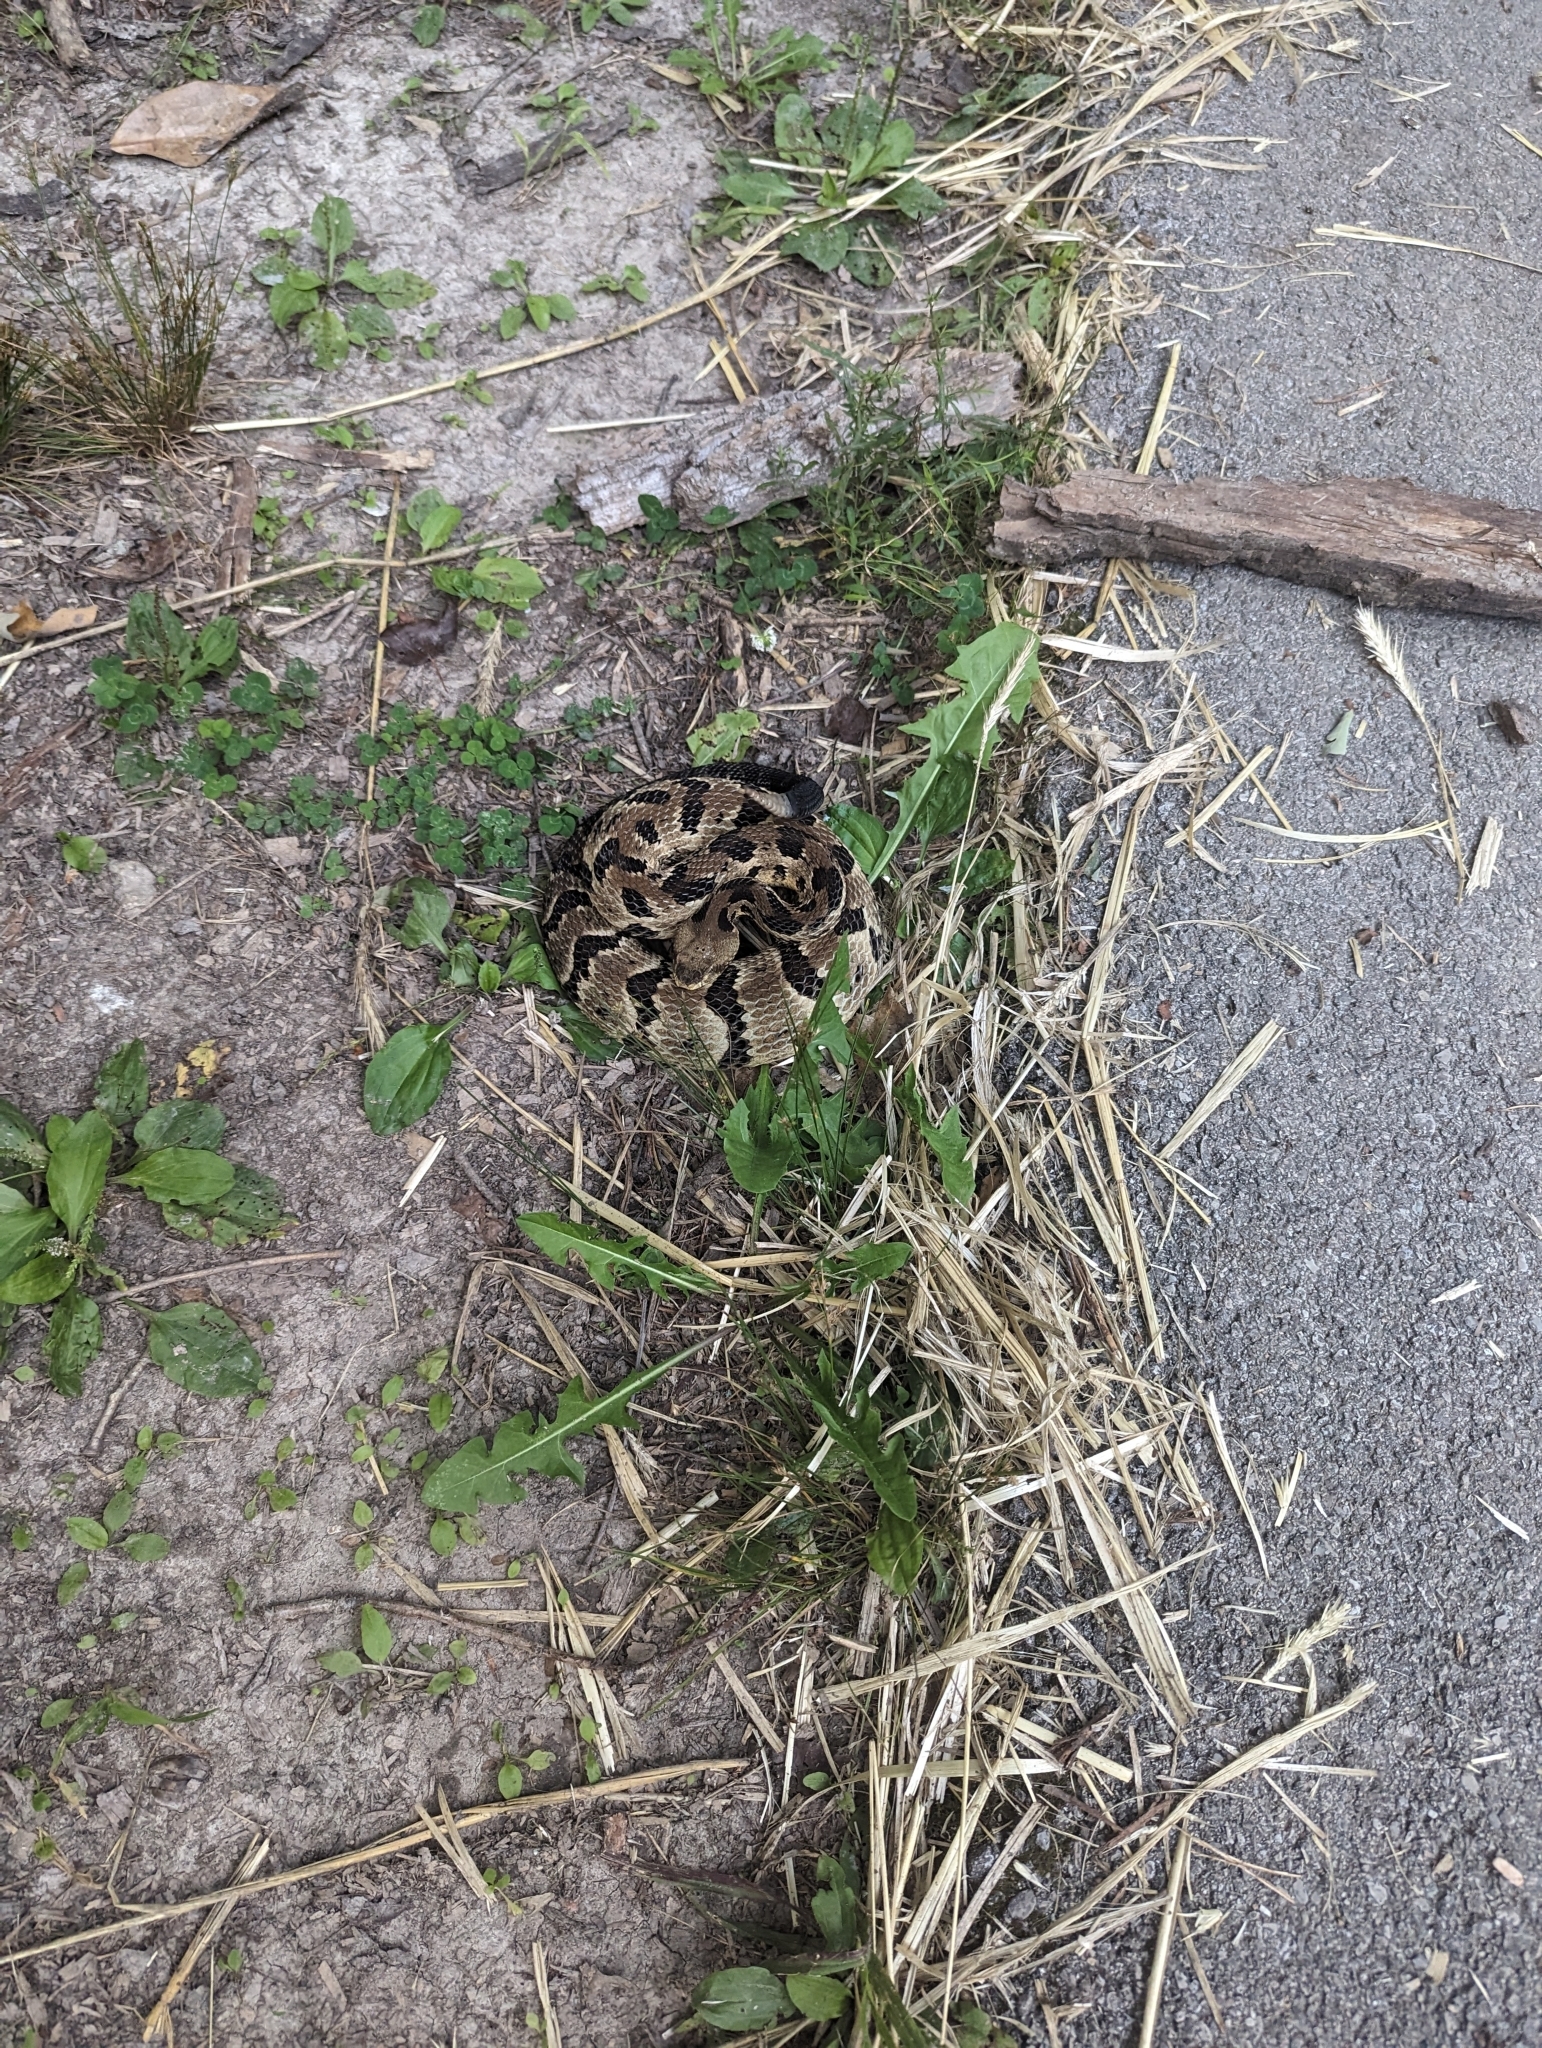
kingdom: Animalia
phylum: Chordata
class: Squamata
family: Viperidae
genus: Crotalus
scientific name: Crotalus horridus
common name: Timber rattlesnake
